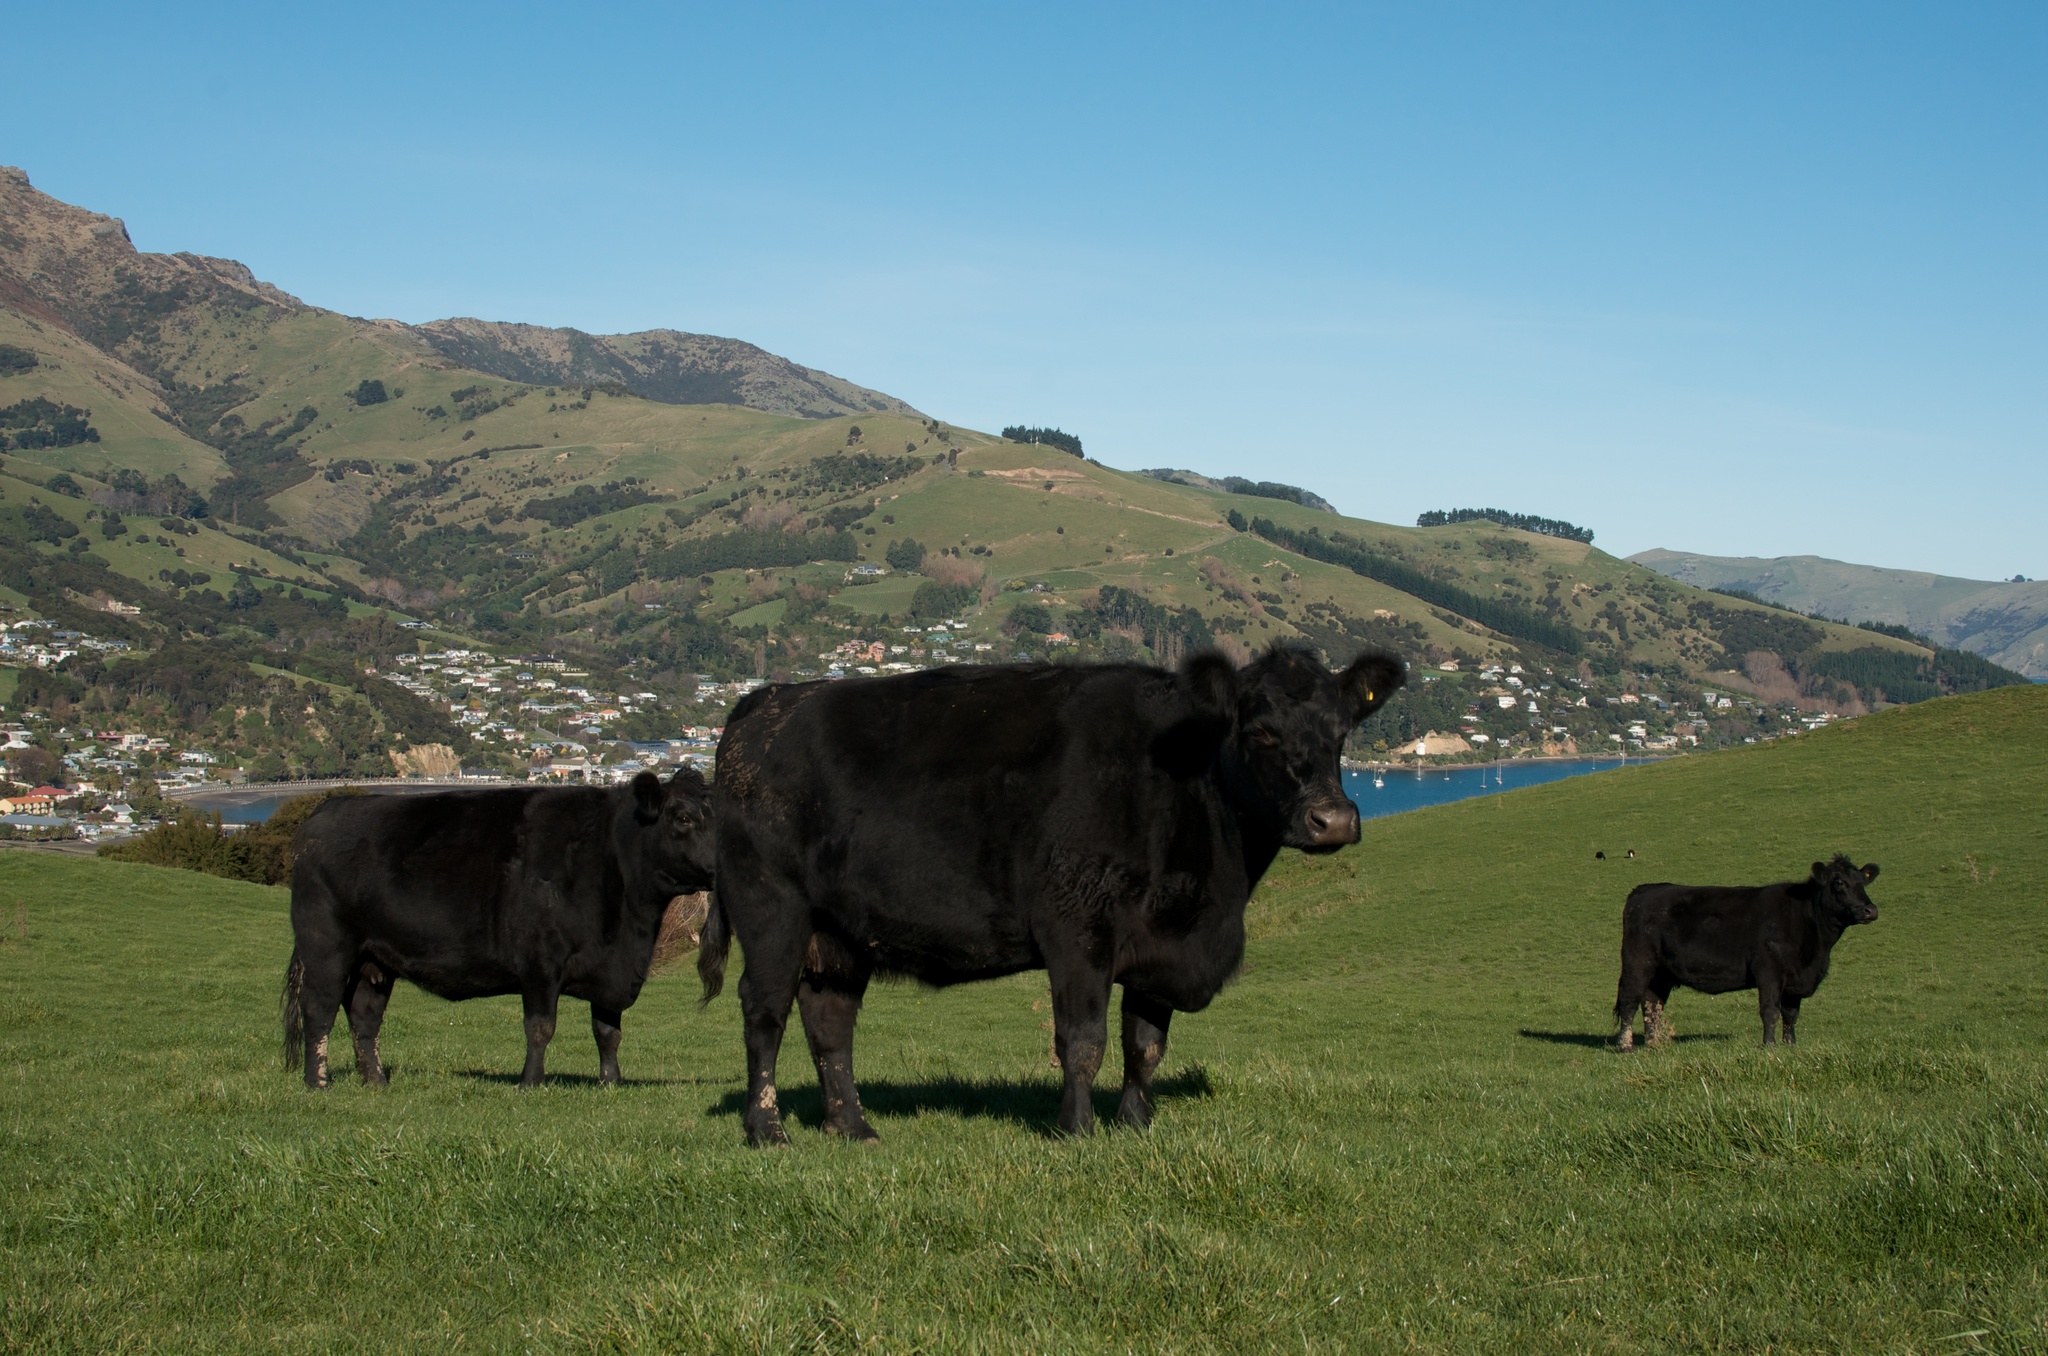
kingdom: Animalia
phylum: Chordata
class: Aves
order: Anseriformes
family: Anatidae
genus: Tadorna
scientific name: Tadorna variegata
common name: Paradise shelduck
